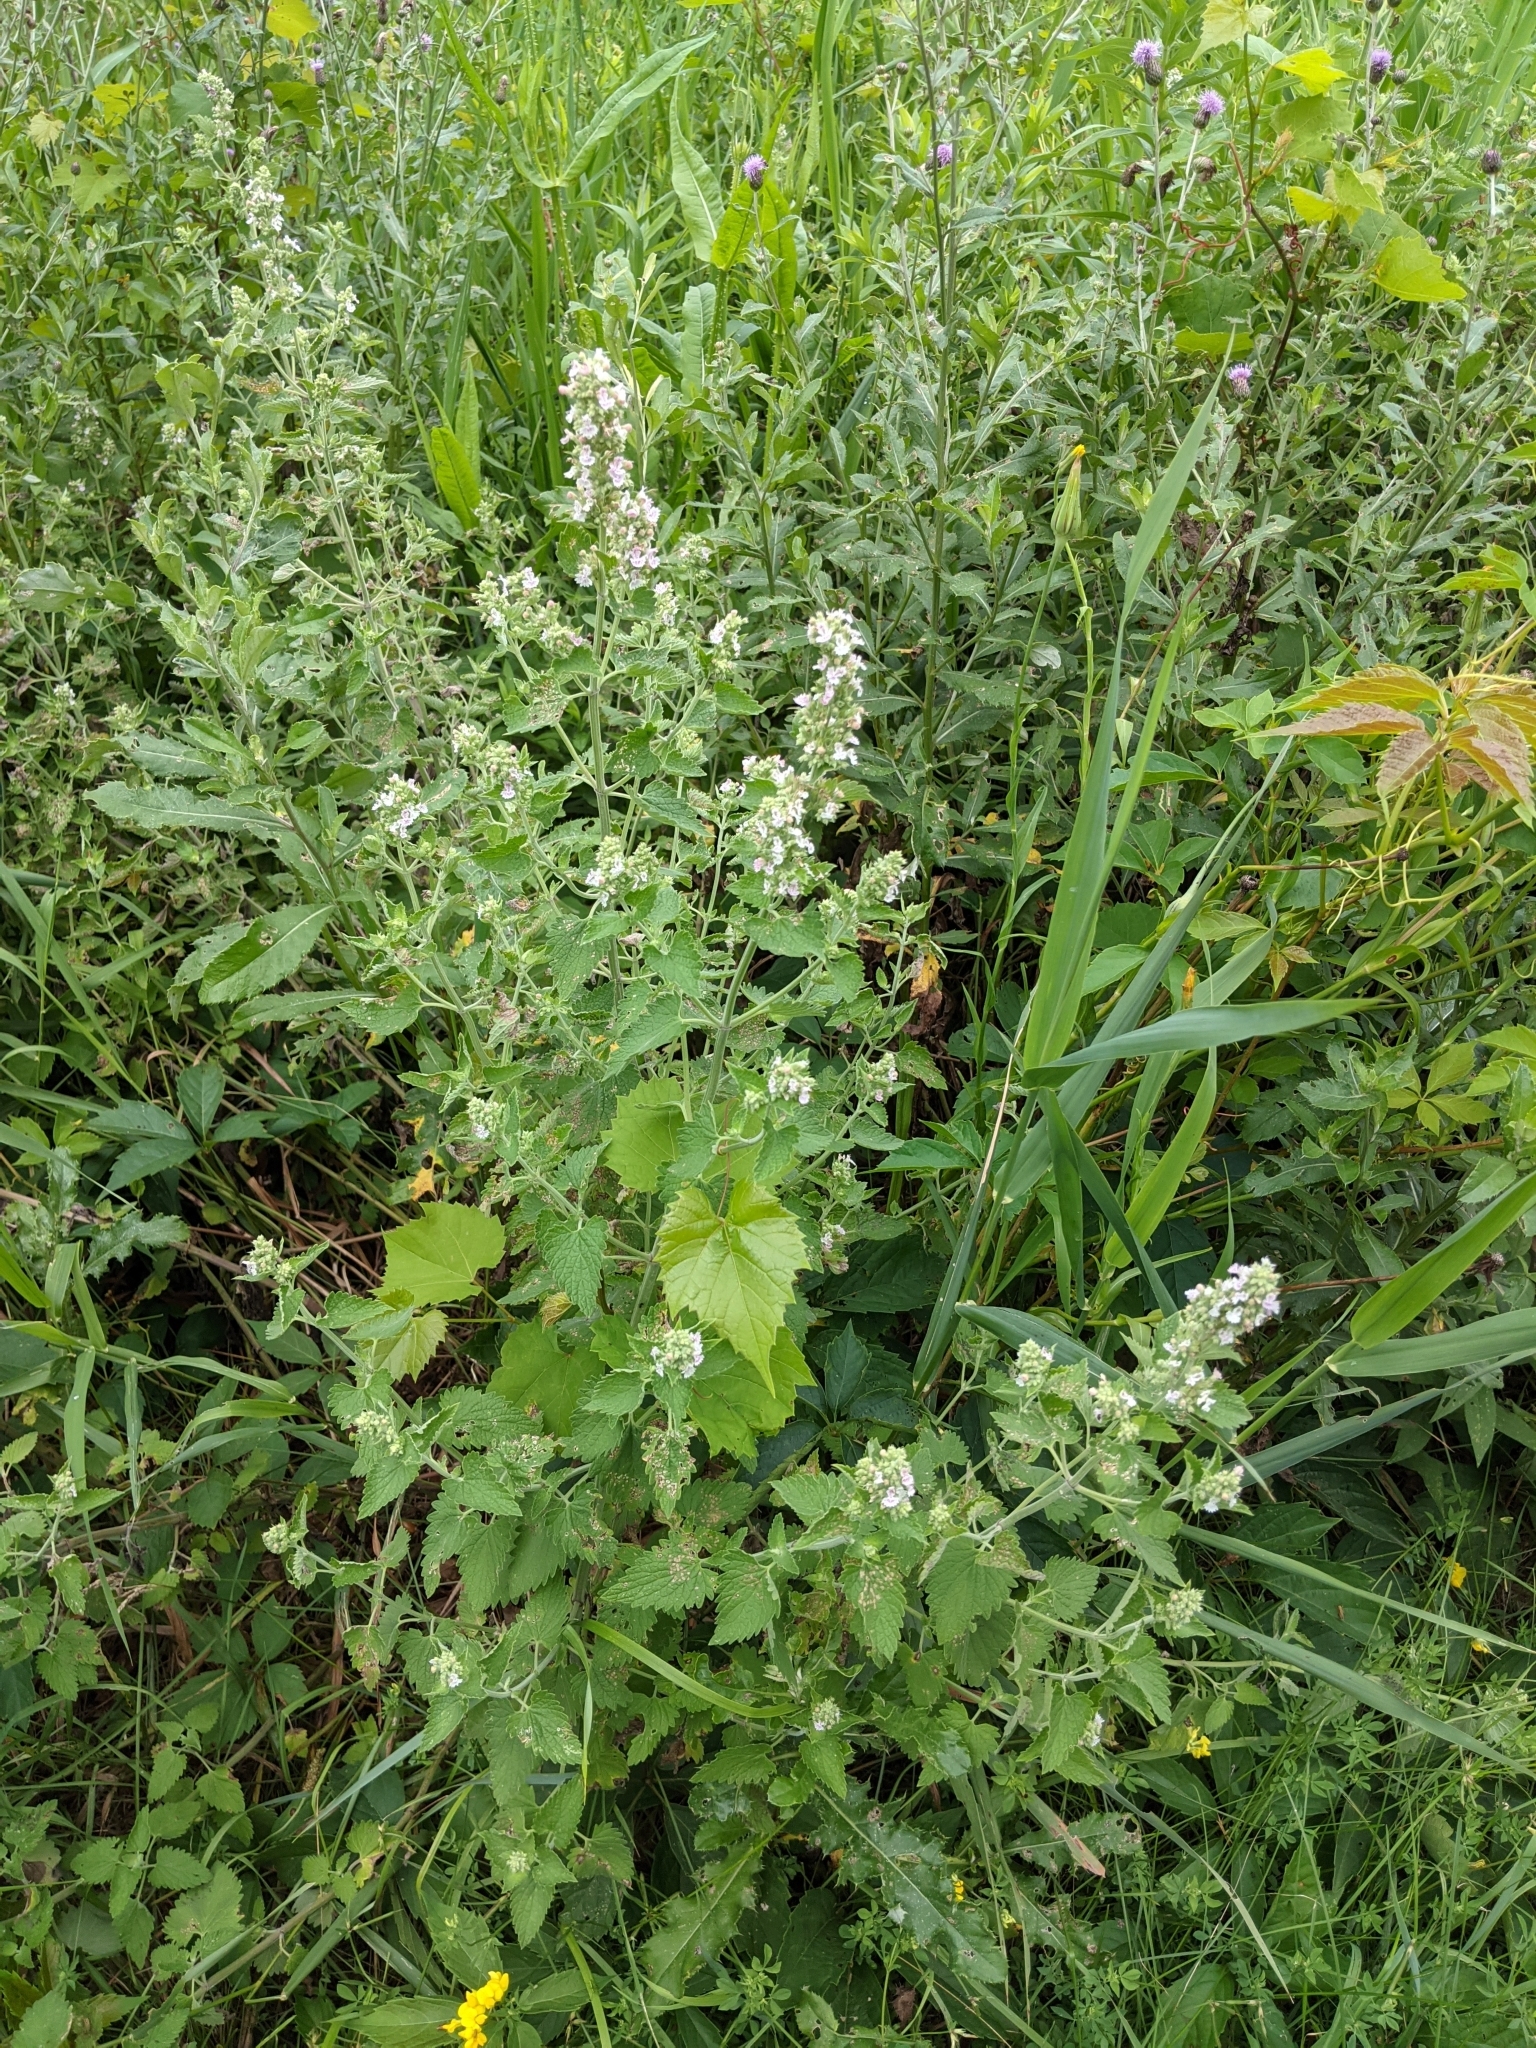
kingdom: Plantae
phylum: Tracheophyta
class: Magnoliopsida
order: Lamiales
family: Lamiaceae
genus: Nepeta
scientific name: Nepeta cataria
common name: Catnip
